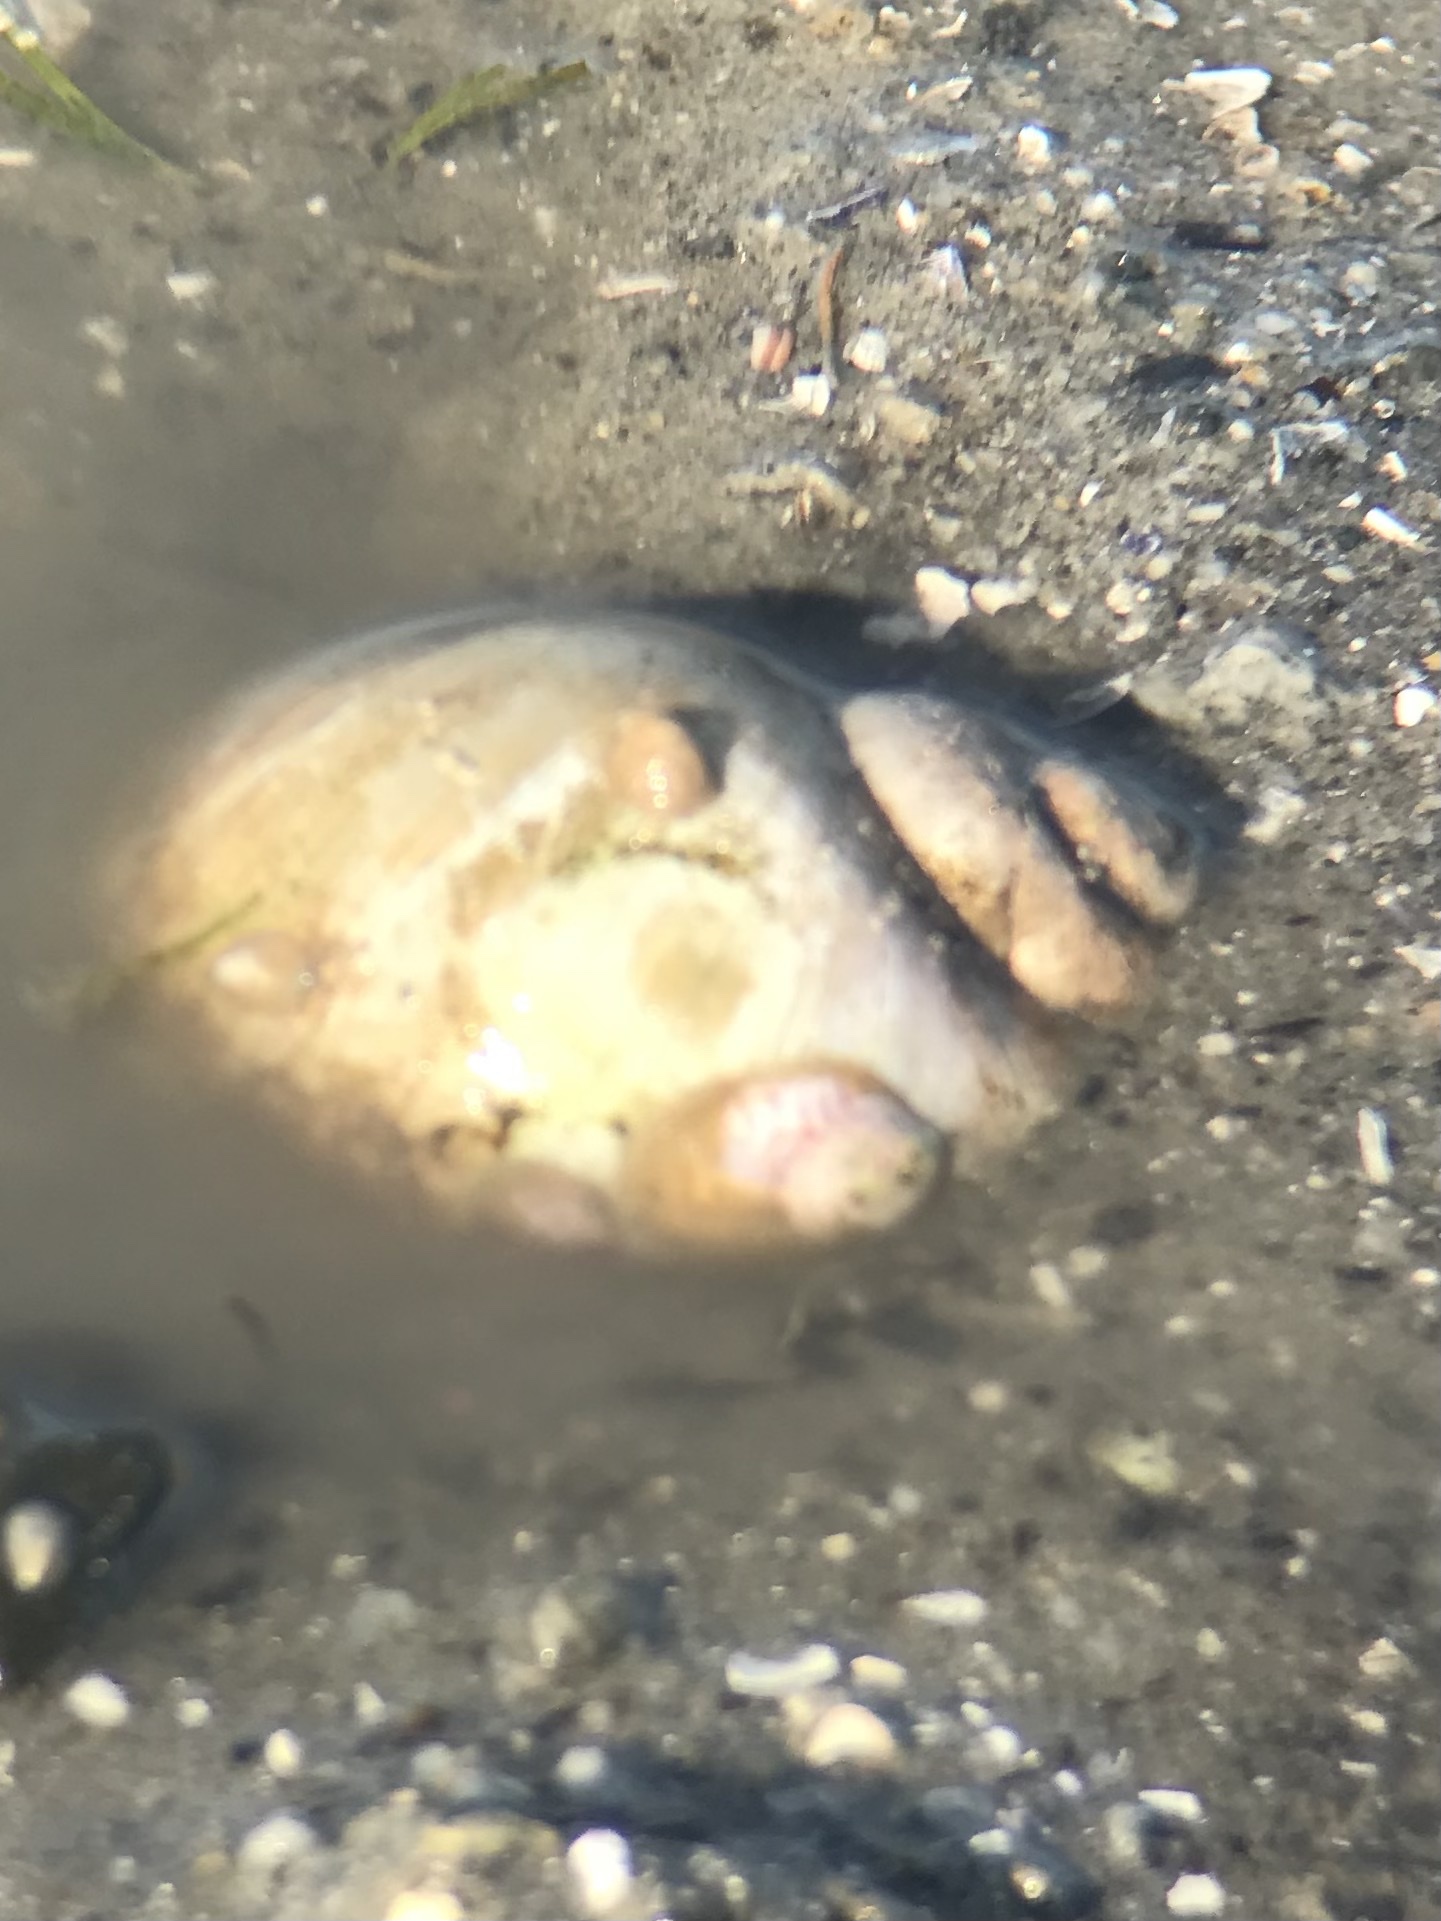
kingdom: Animalia
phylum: Mollusca
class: Gastropoda
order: Littorinimorpha
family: Naticidae
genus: Euspira
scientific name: Euspira heros
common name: Common northern moonsnail
